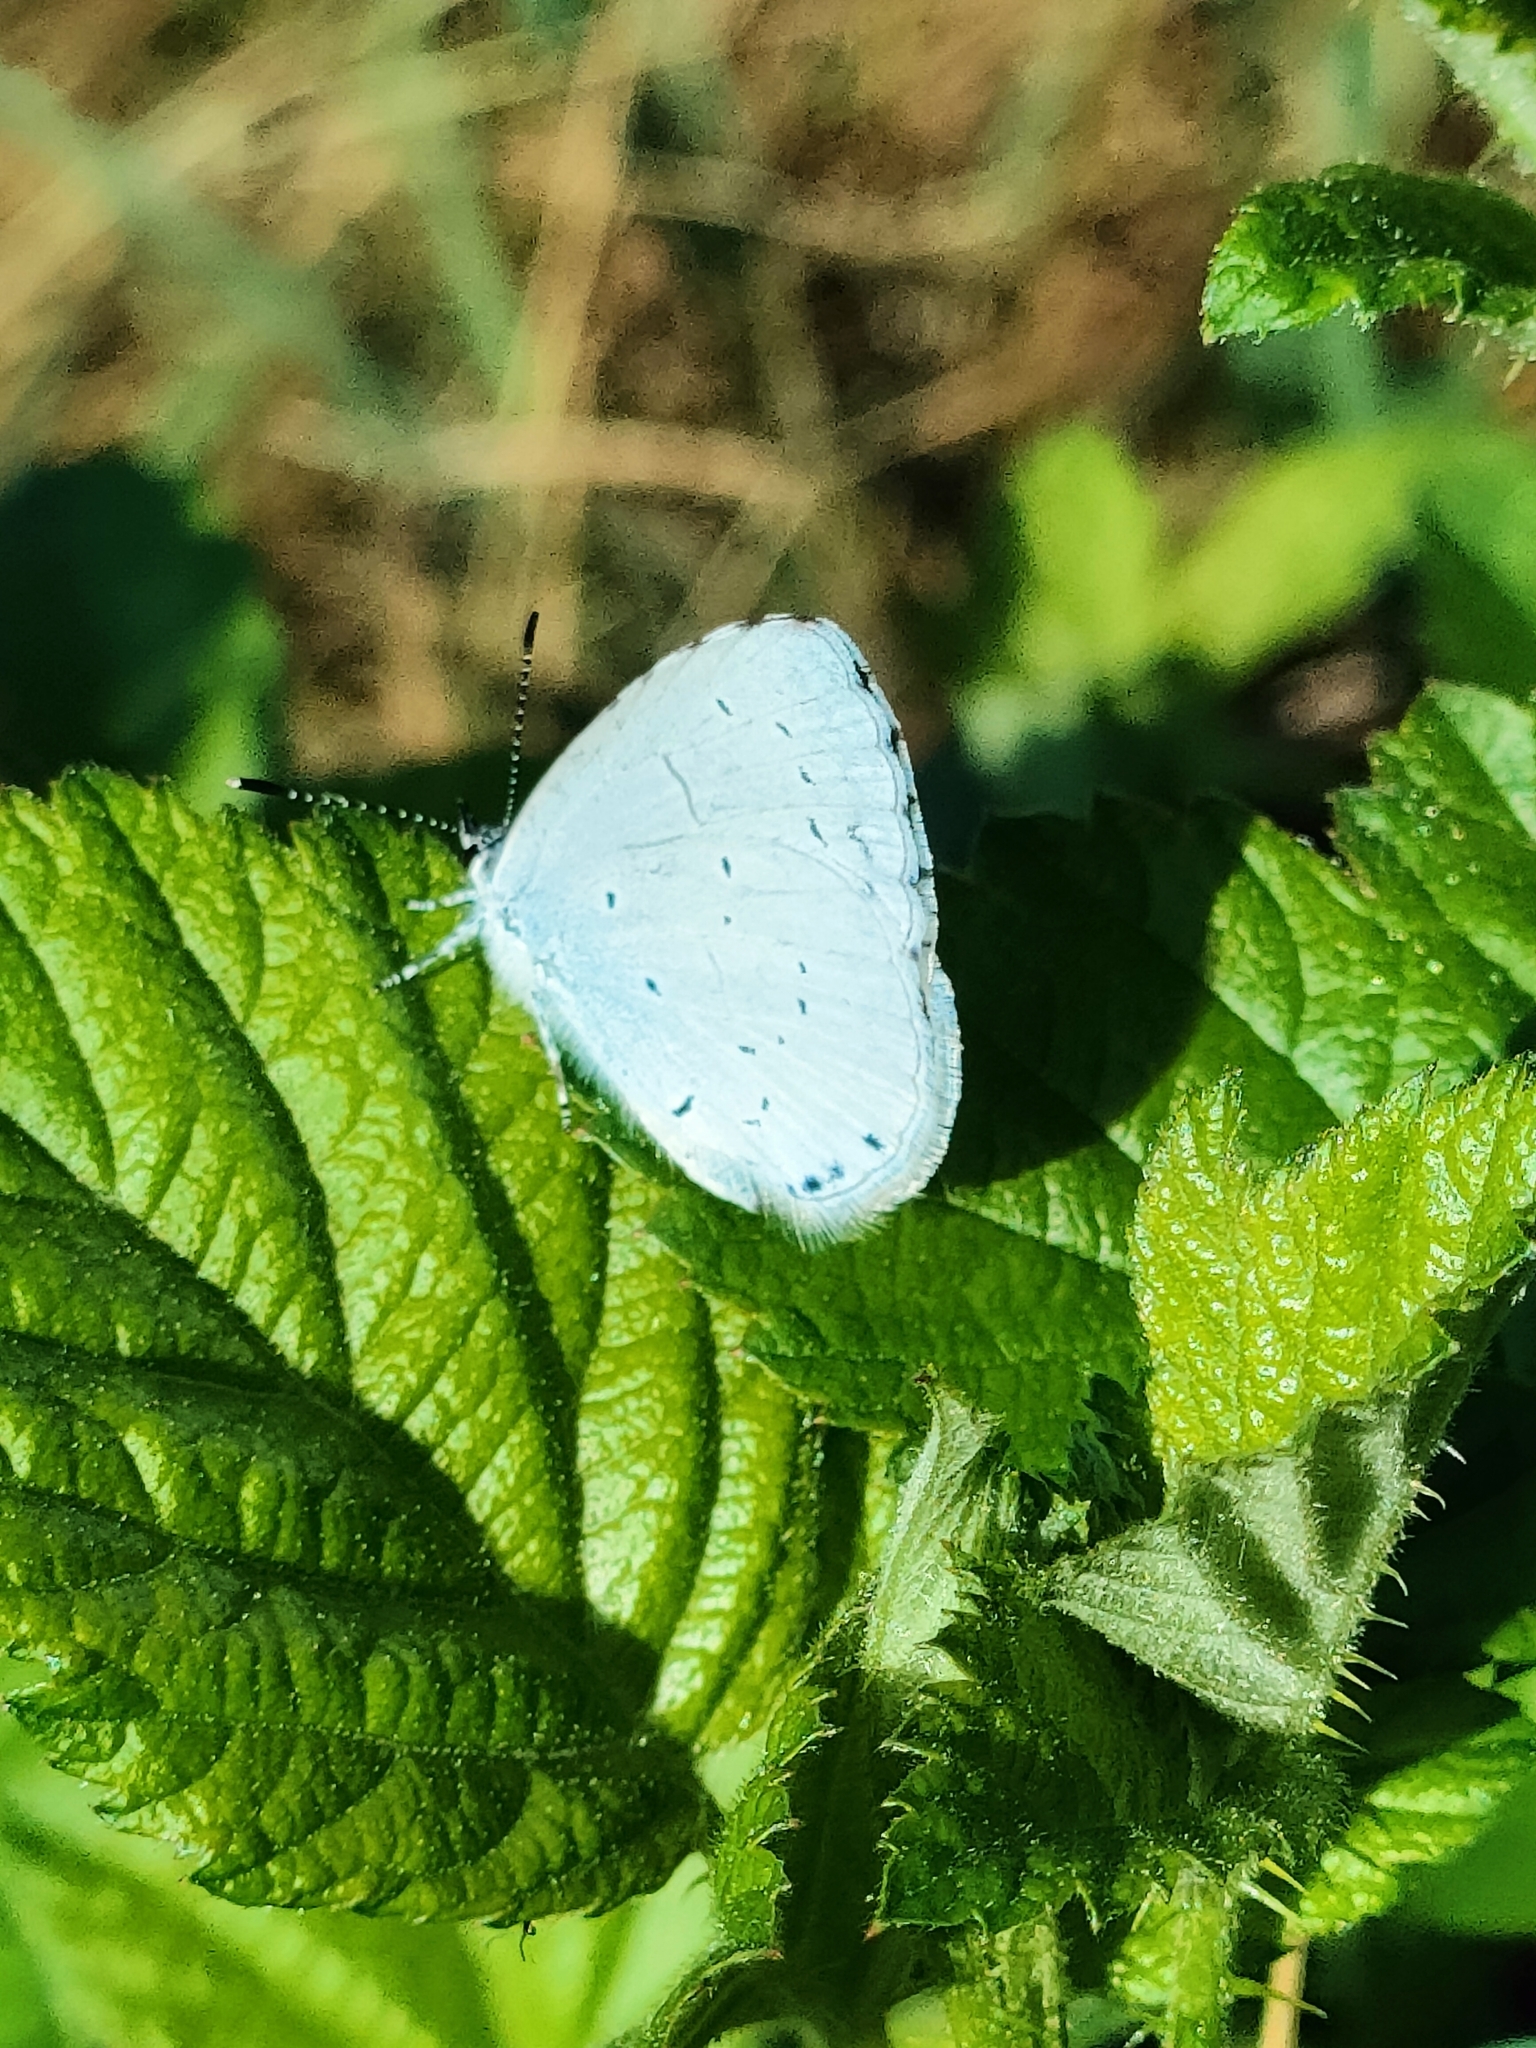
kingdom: Animalia
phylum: Arthropoda
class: Insecta
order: Lepidoptera
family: Lycaenidae
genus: Celastrina
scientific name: Celastrina argiolus
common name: Holly blue
